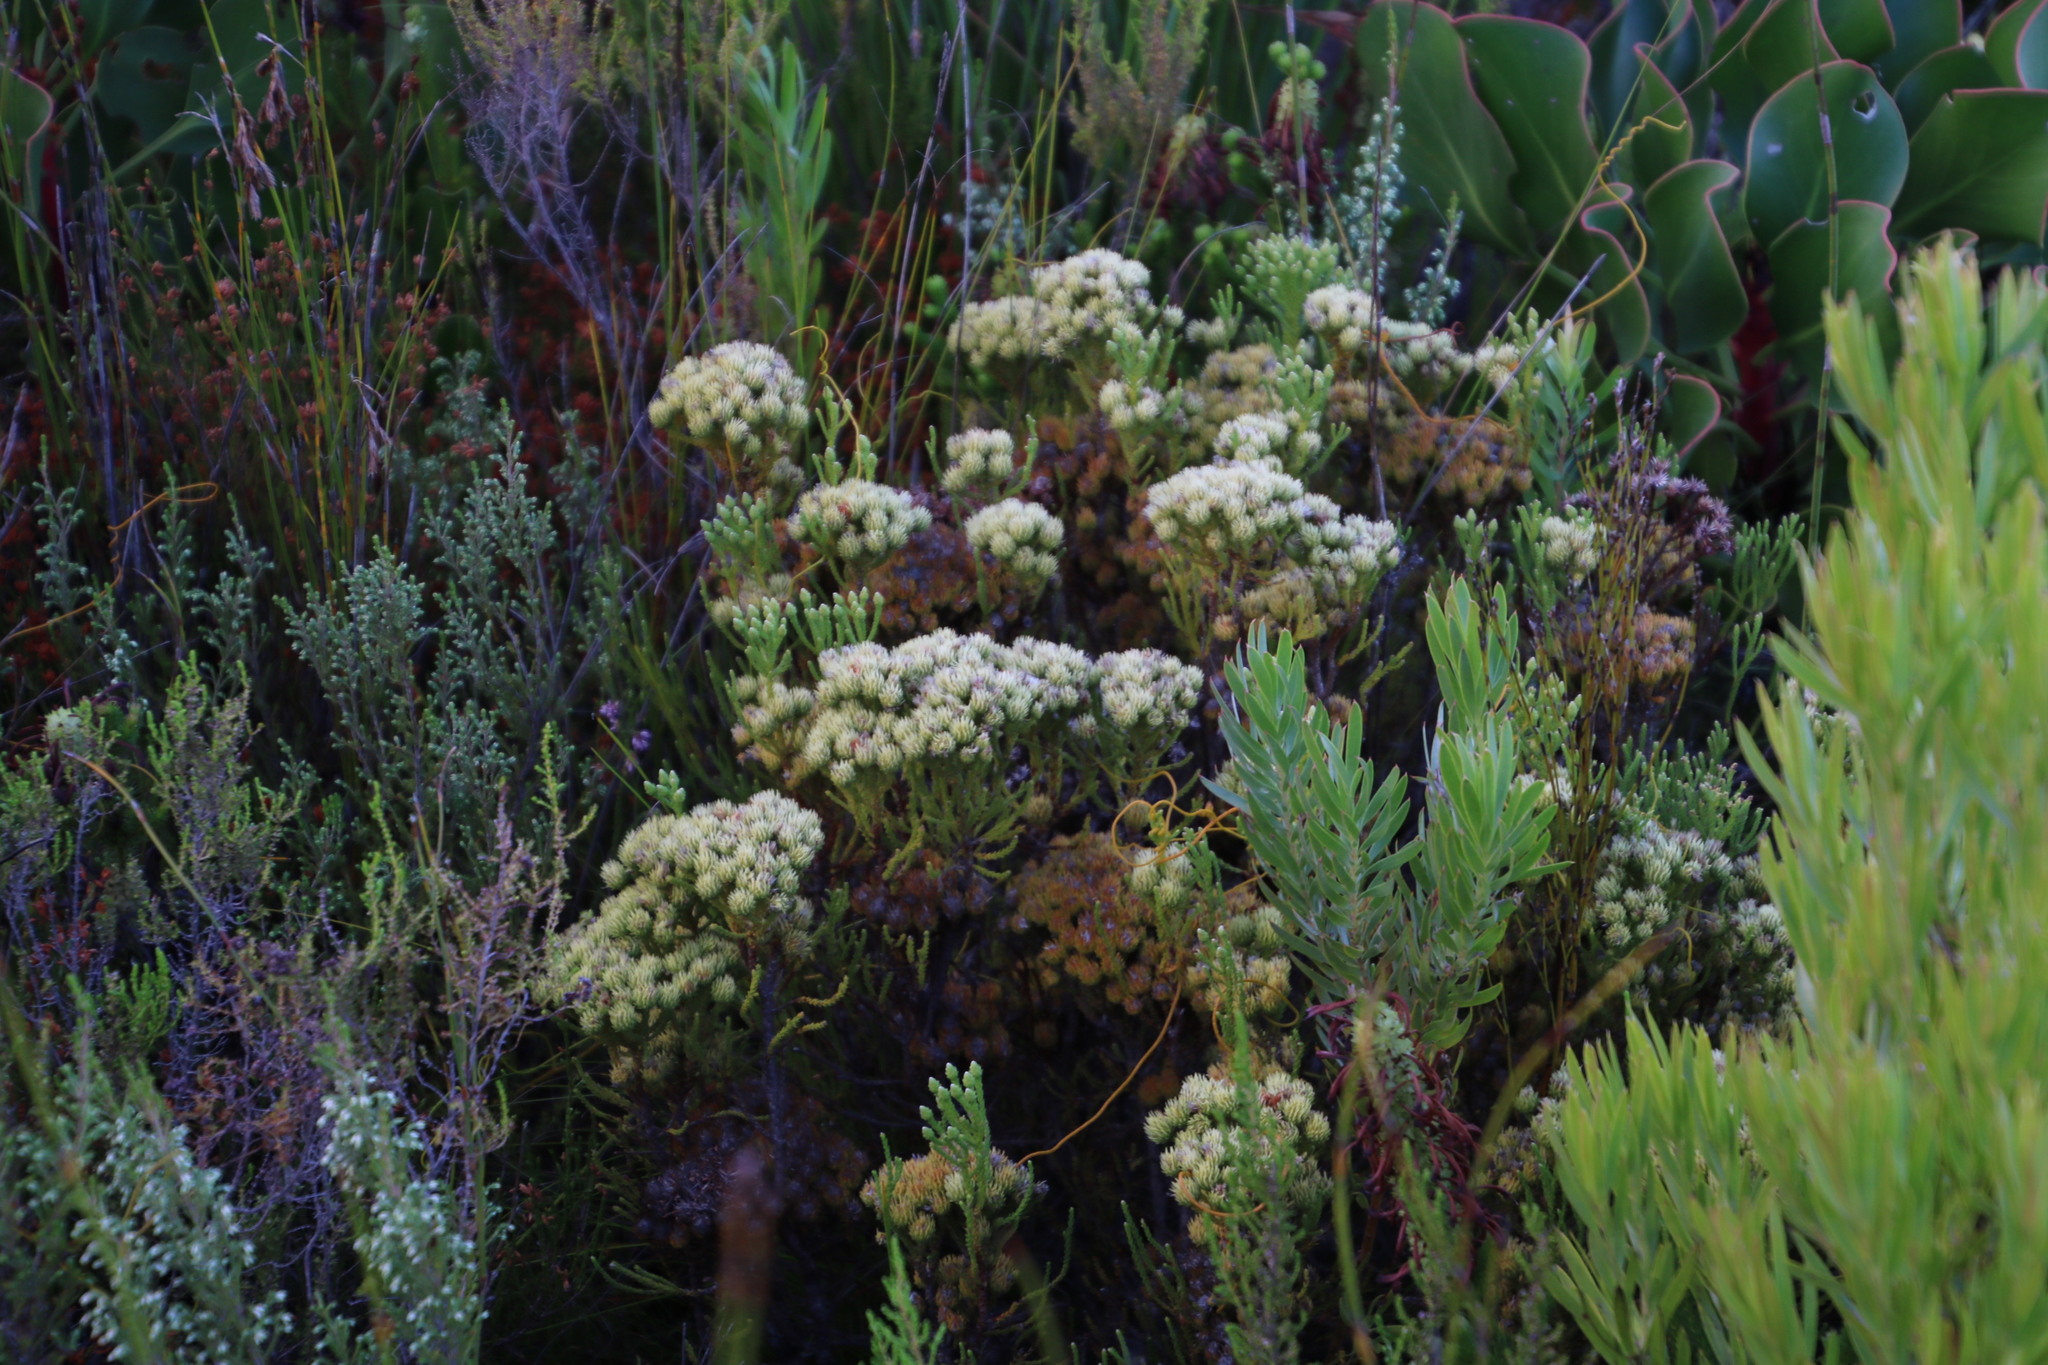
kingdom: Plantae
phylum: Tracheophyta
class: Magnoliopsida
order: Bruniales
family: Bruniaceae
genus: Brunia
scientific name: Brunia paleacea
